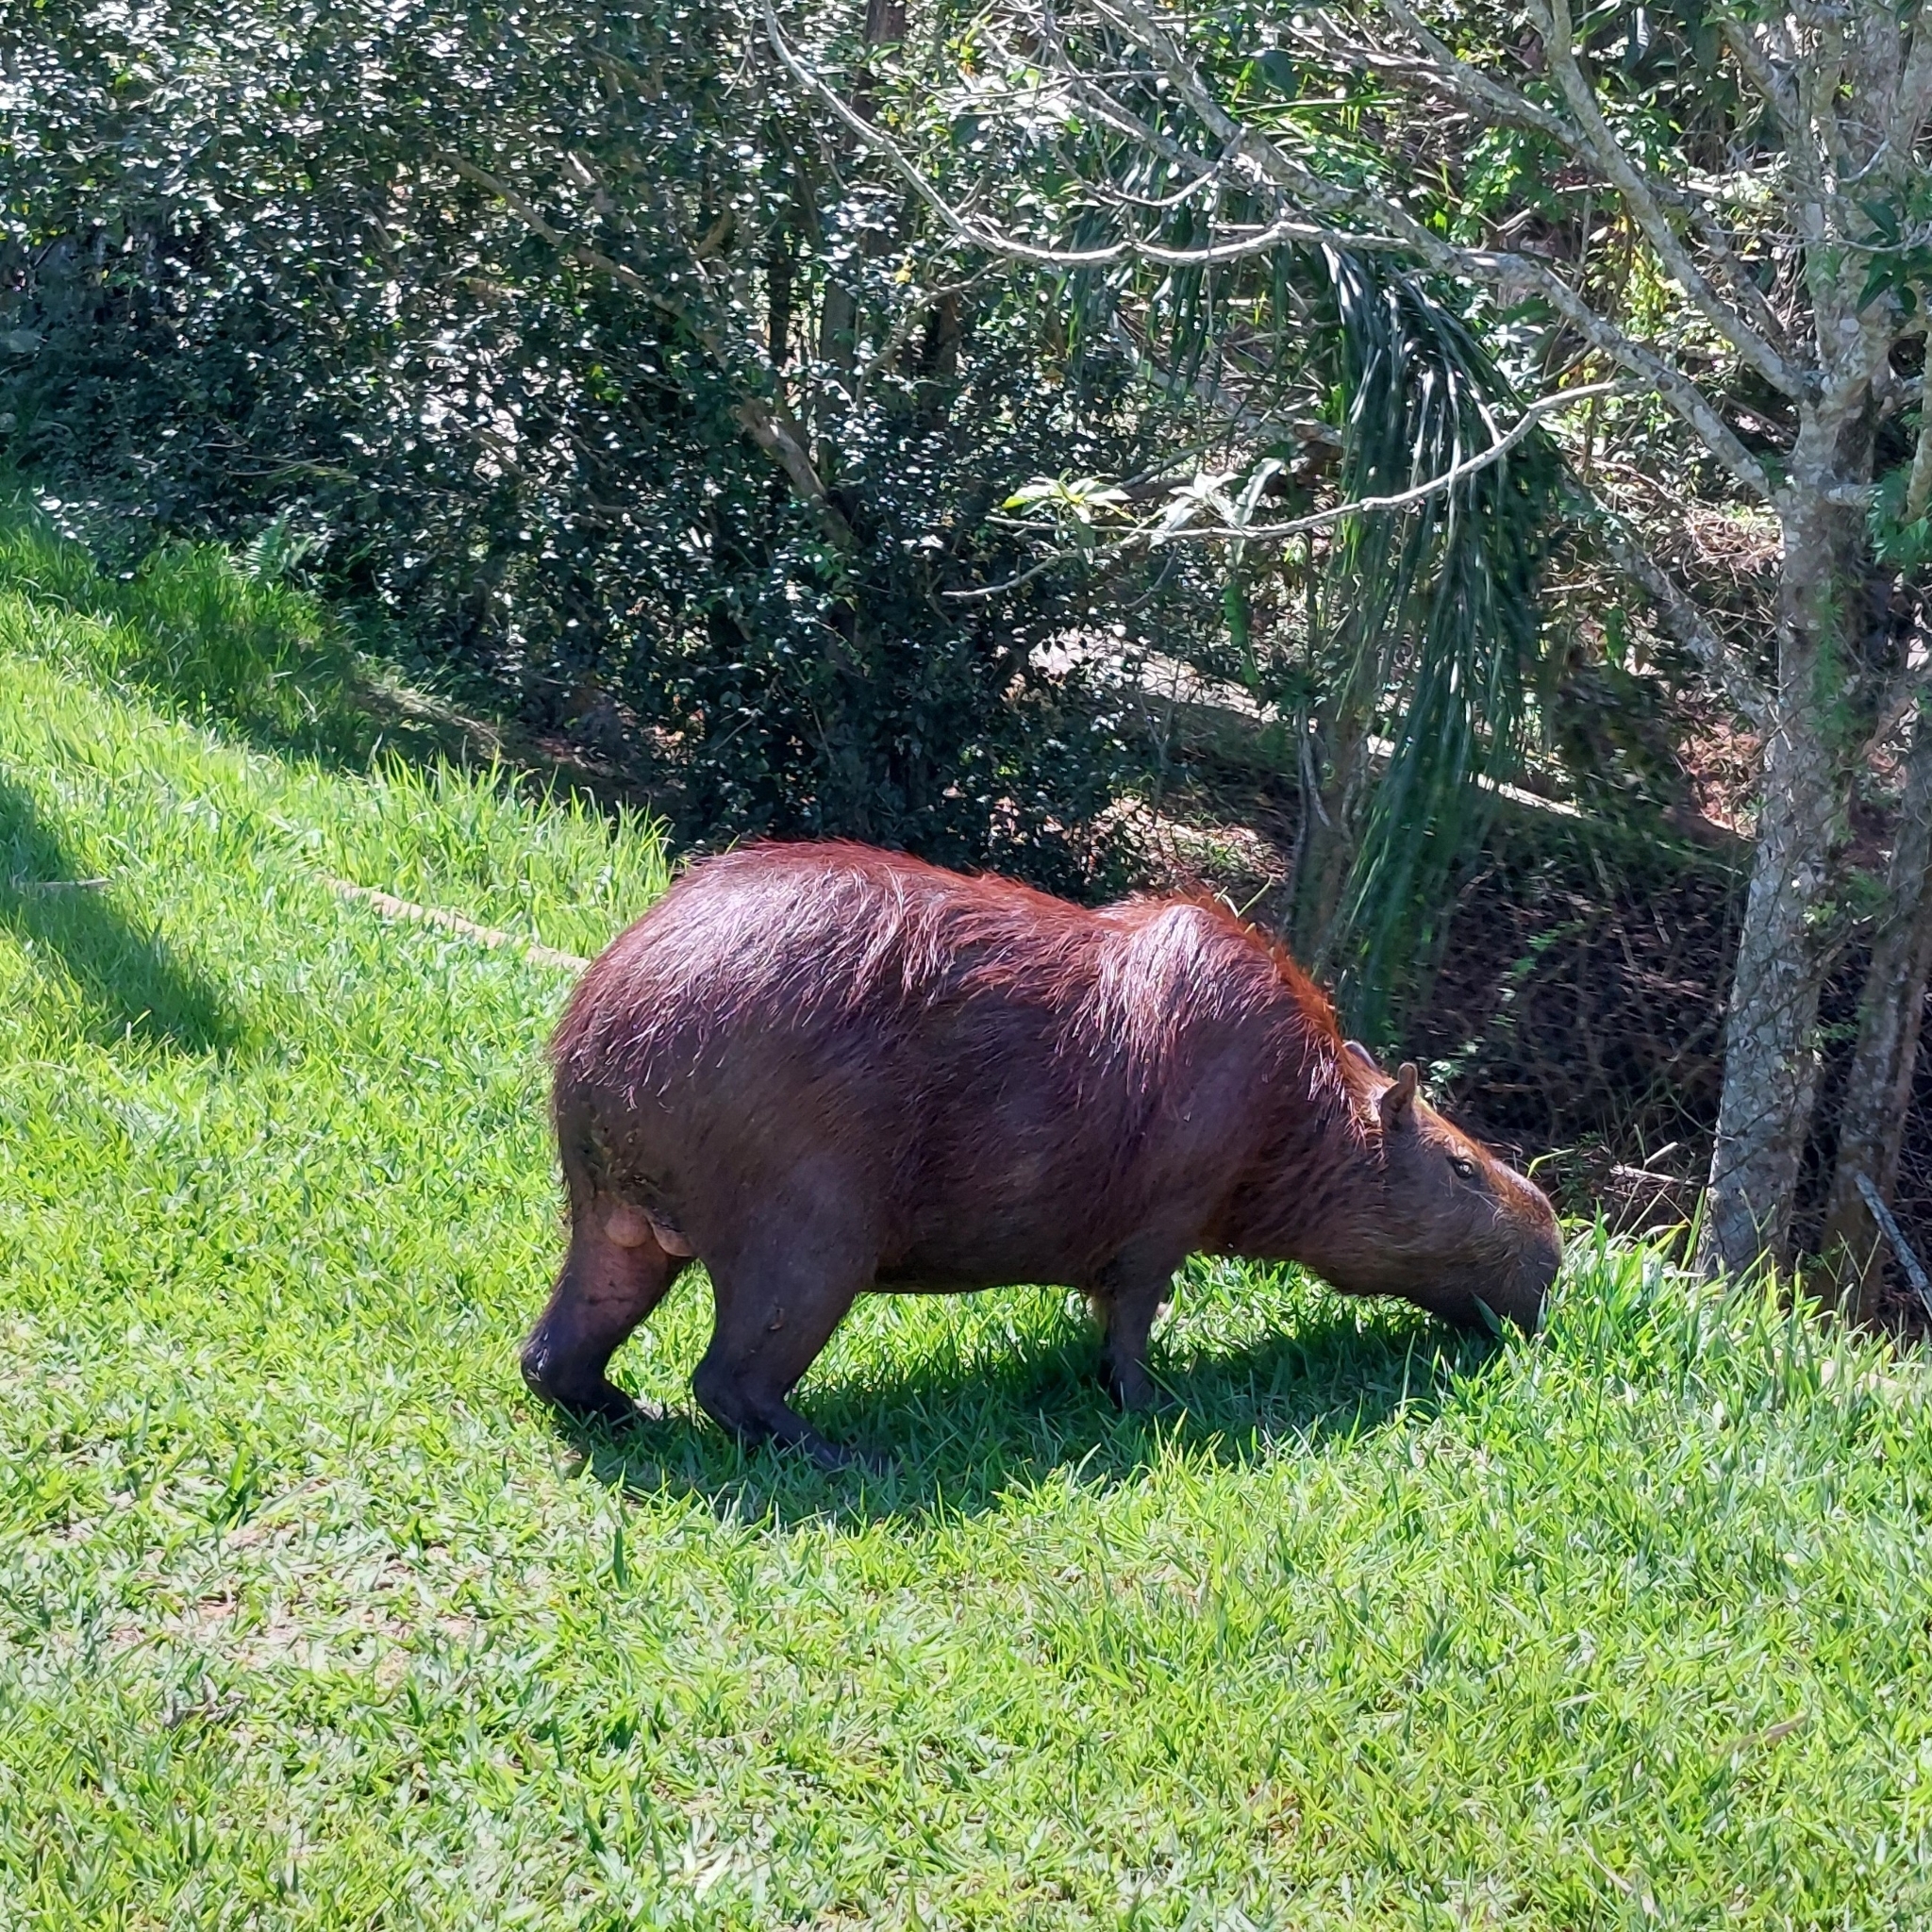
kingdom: Animalia
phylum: Chordata
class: Mammalia
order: Rodentia
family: Caviidae
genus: Hydrochoerus
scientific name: Hydrochoerus hydrochaeris
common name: Capybara
